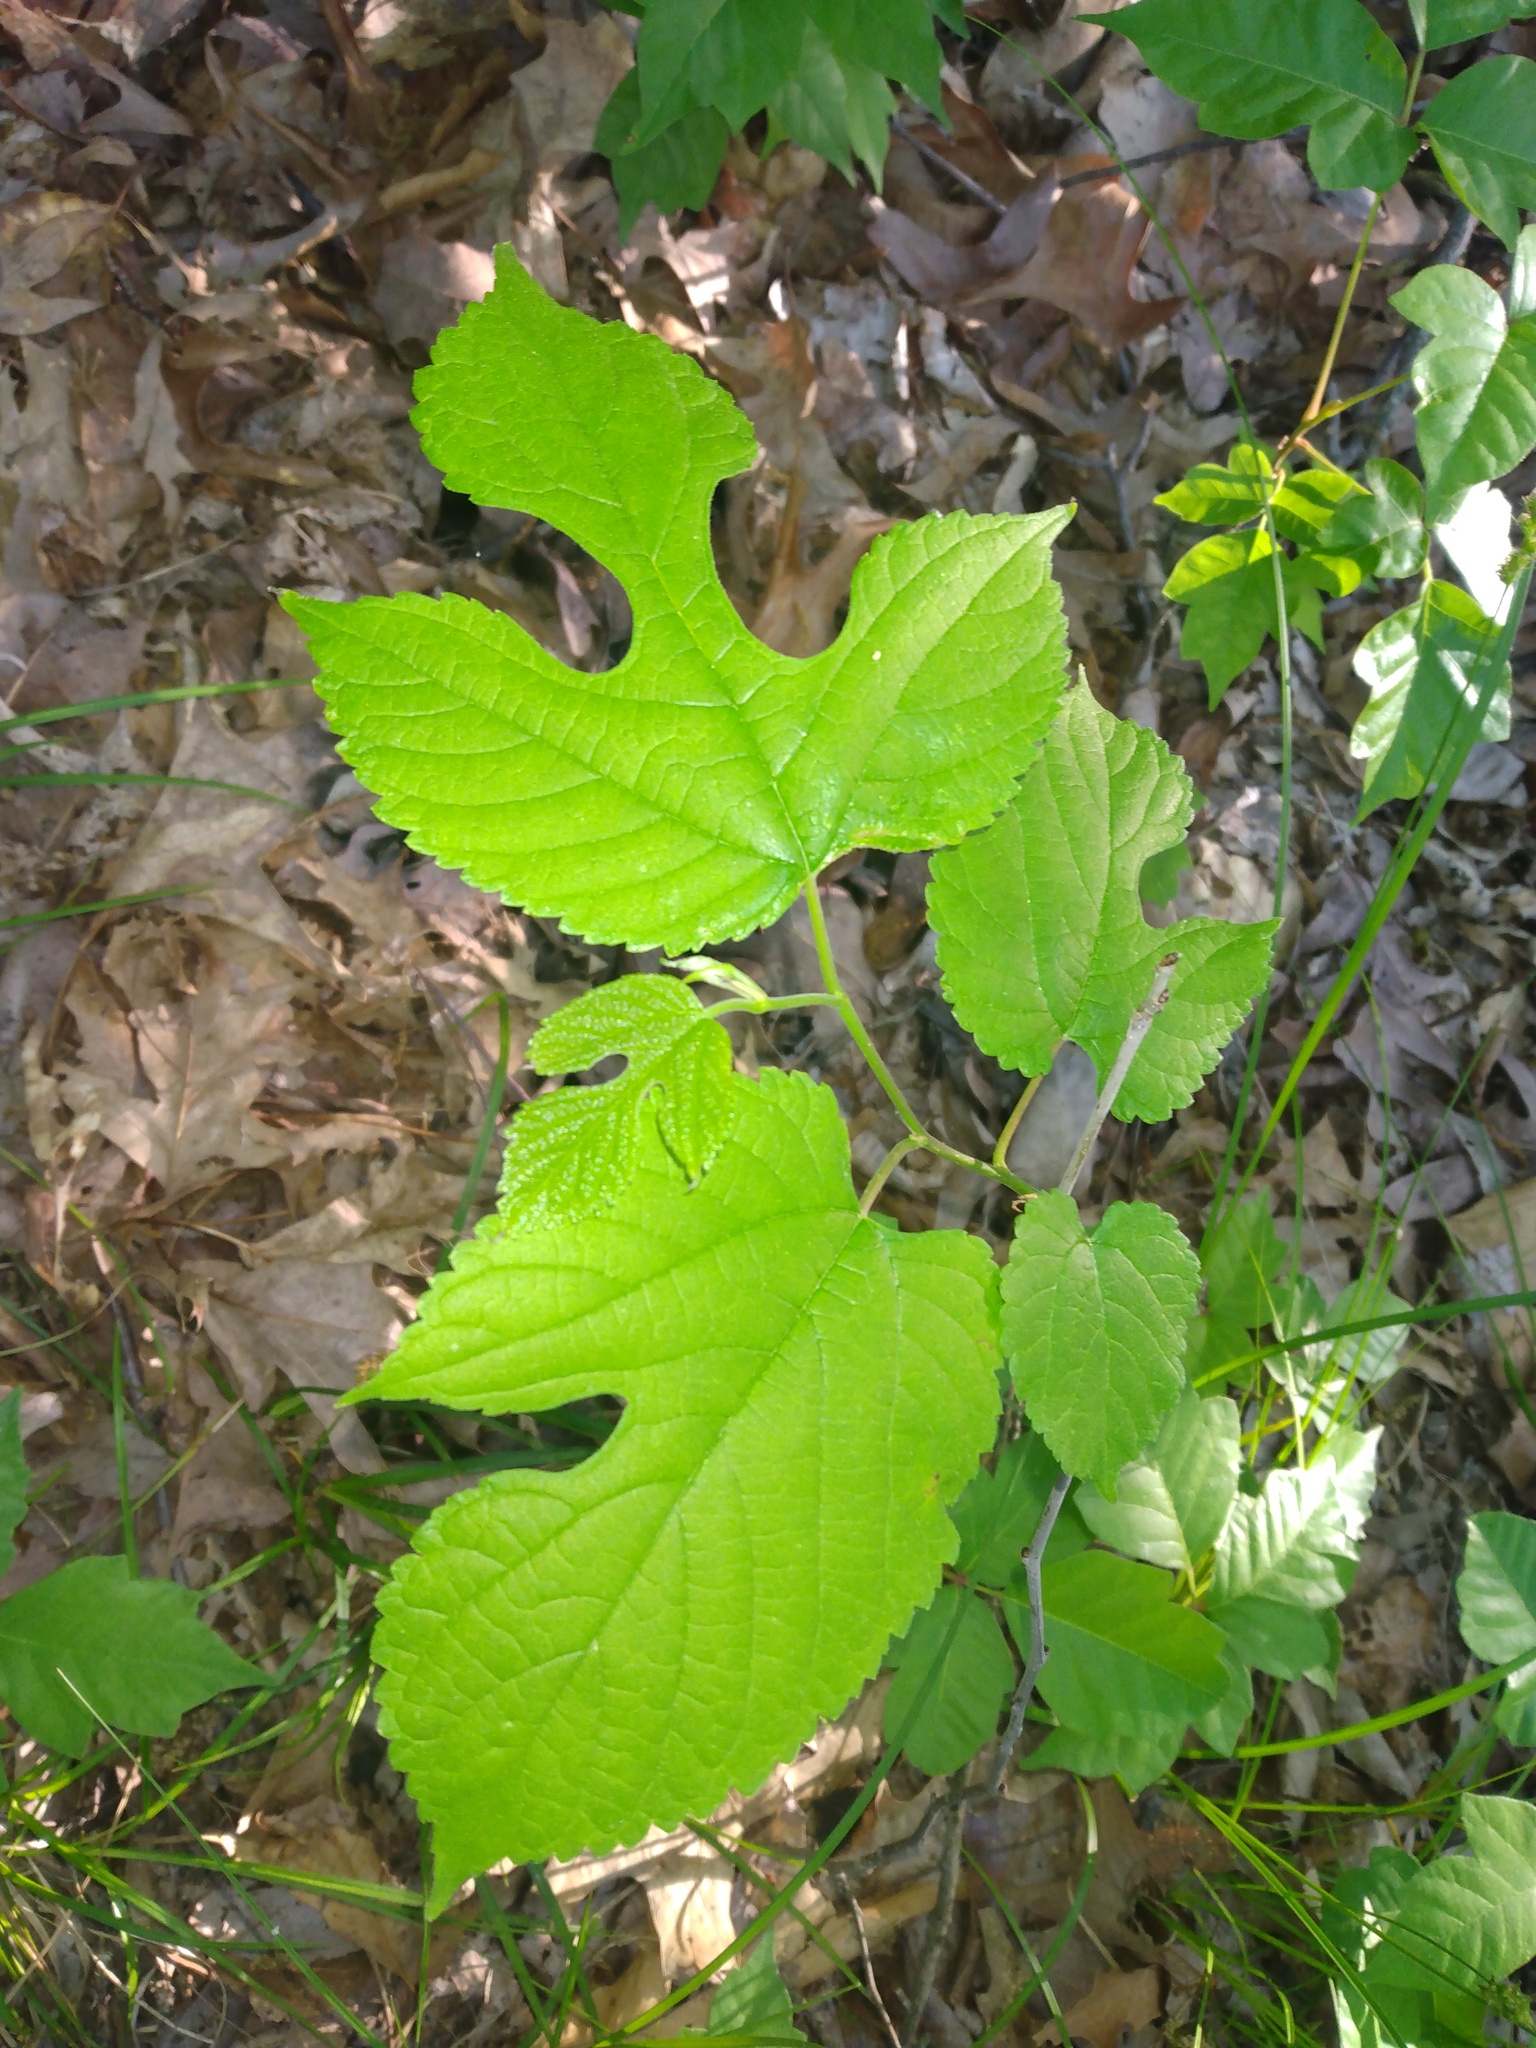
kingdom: Plantae
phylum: Tracheophyta
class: Magnoliopsida
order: Rosales
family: Moraceae
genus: Morus
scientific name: Morus rubra
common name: Red mulberry
